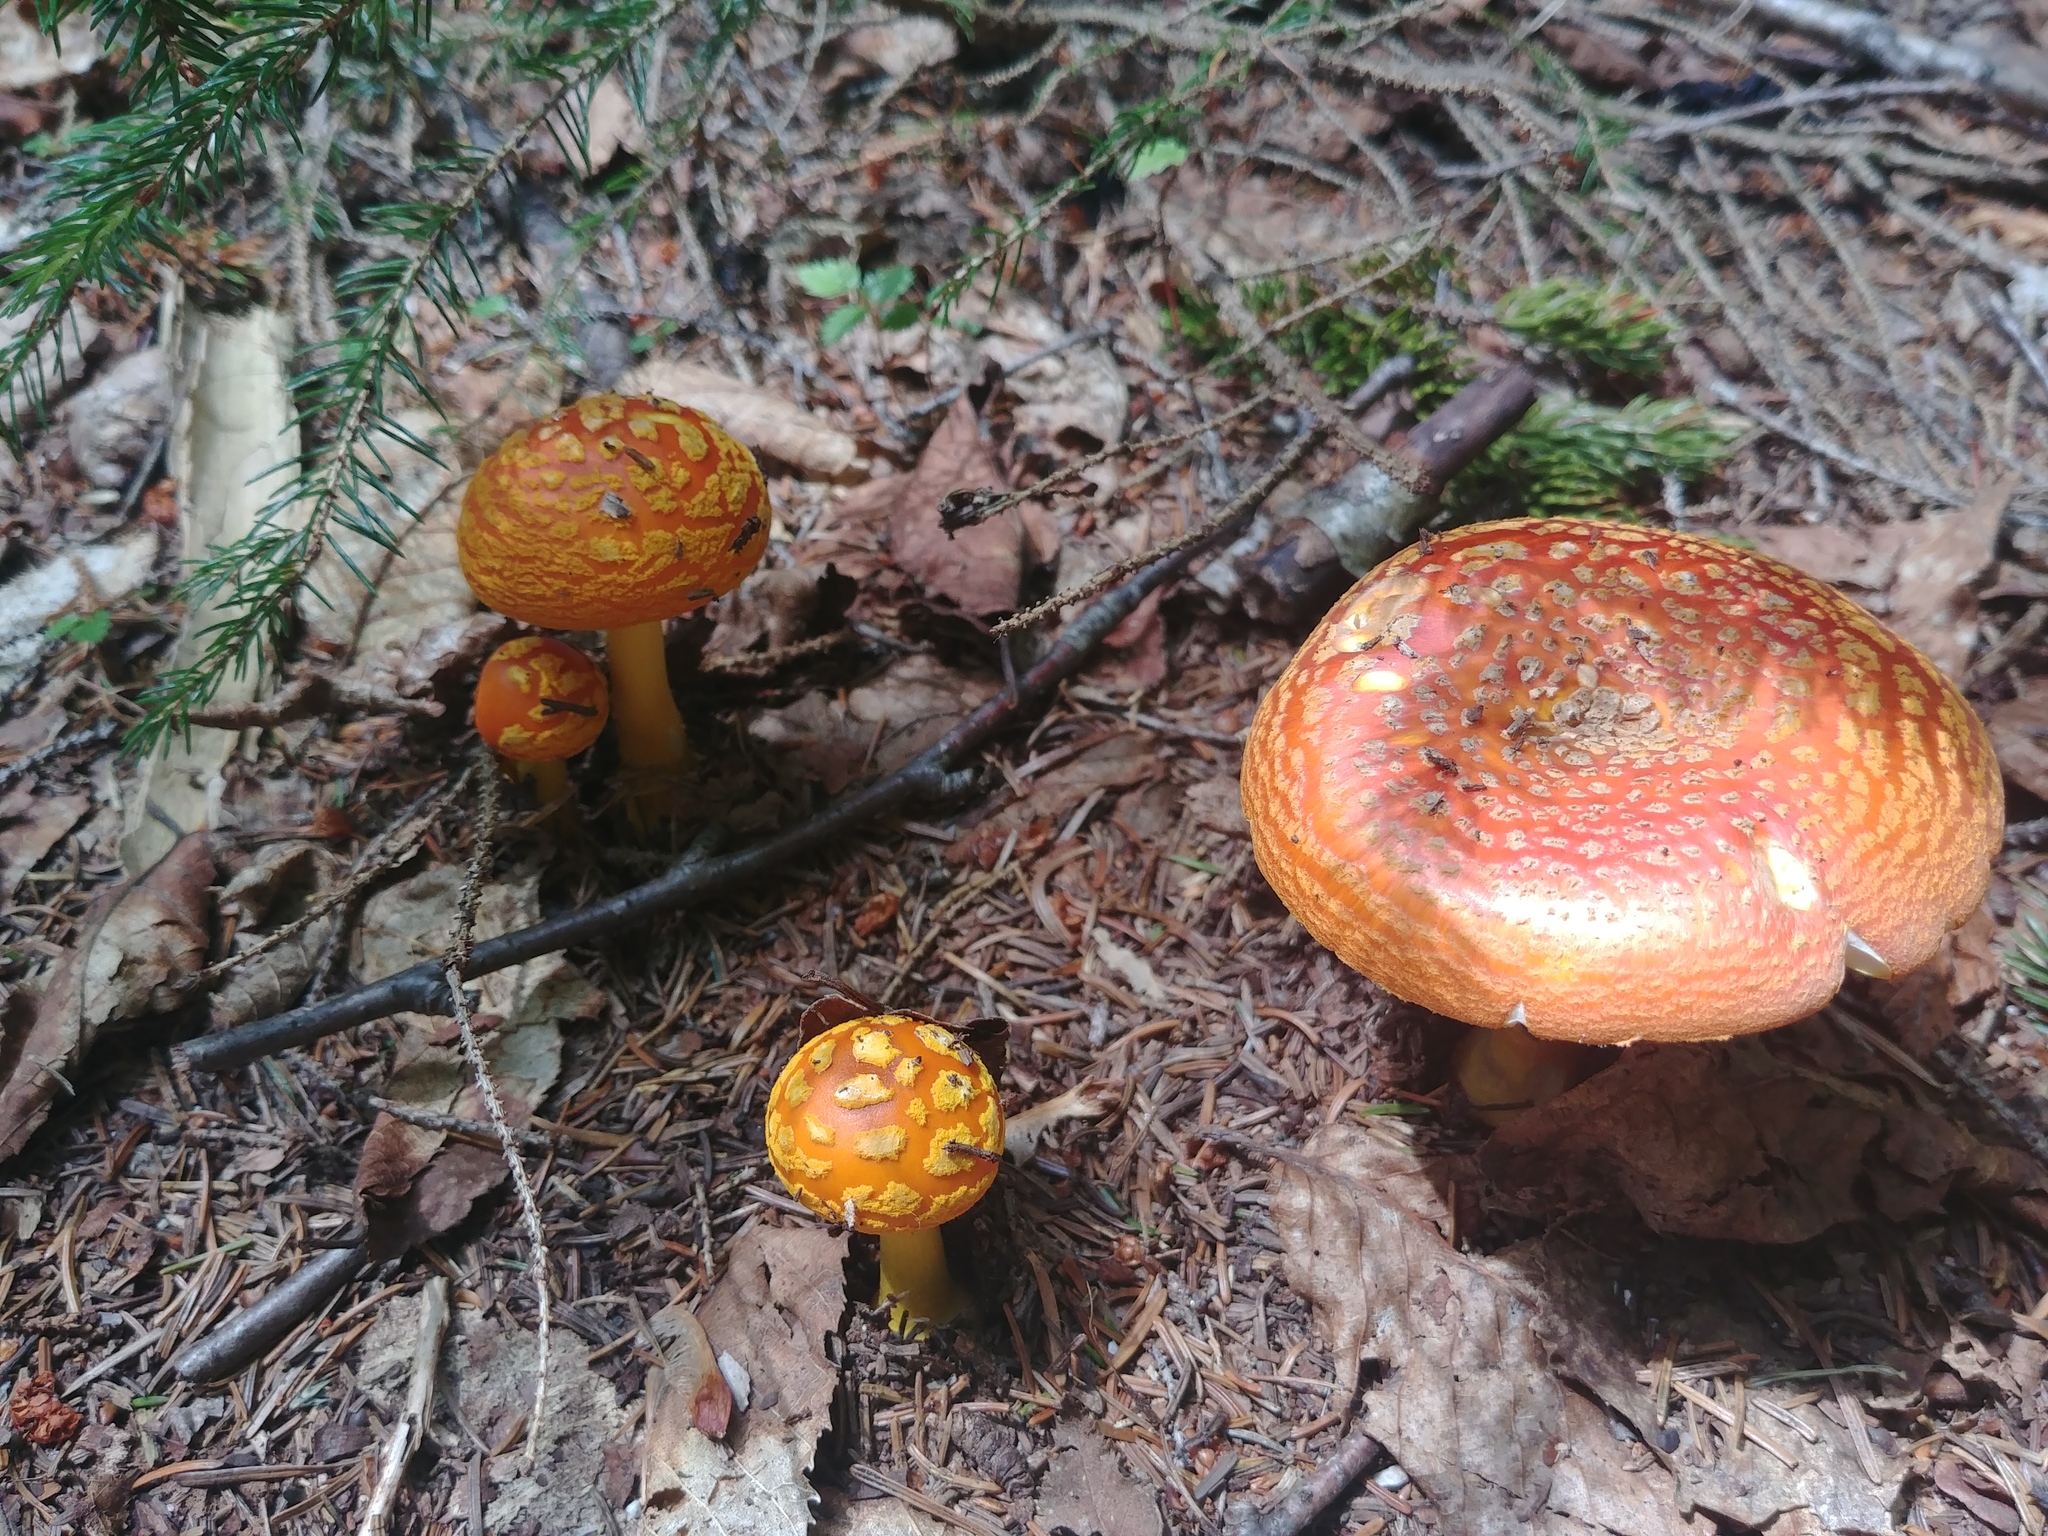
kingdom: Fungi
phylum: Basidiomycota
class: Agaricomycetes
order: Agaricales
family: Amanitaceae
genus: Amanita
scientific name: Amanita flavoconia
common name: Yellow patches
